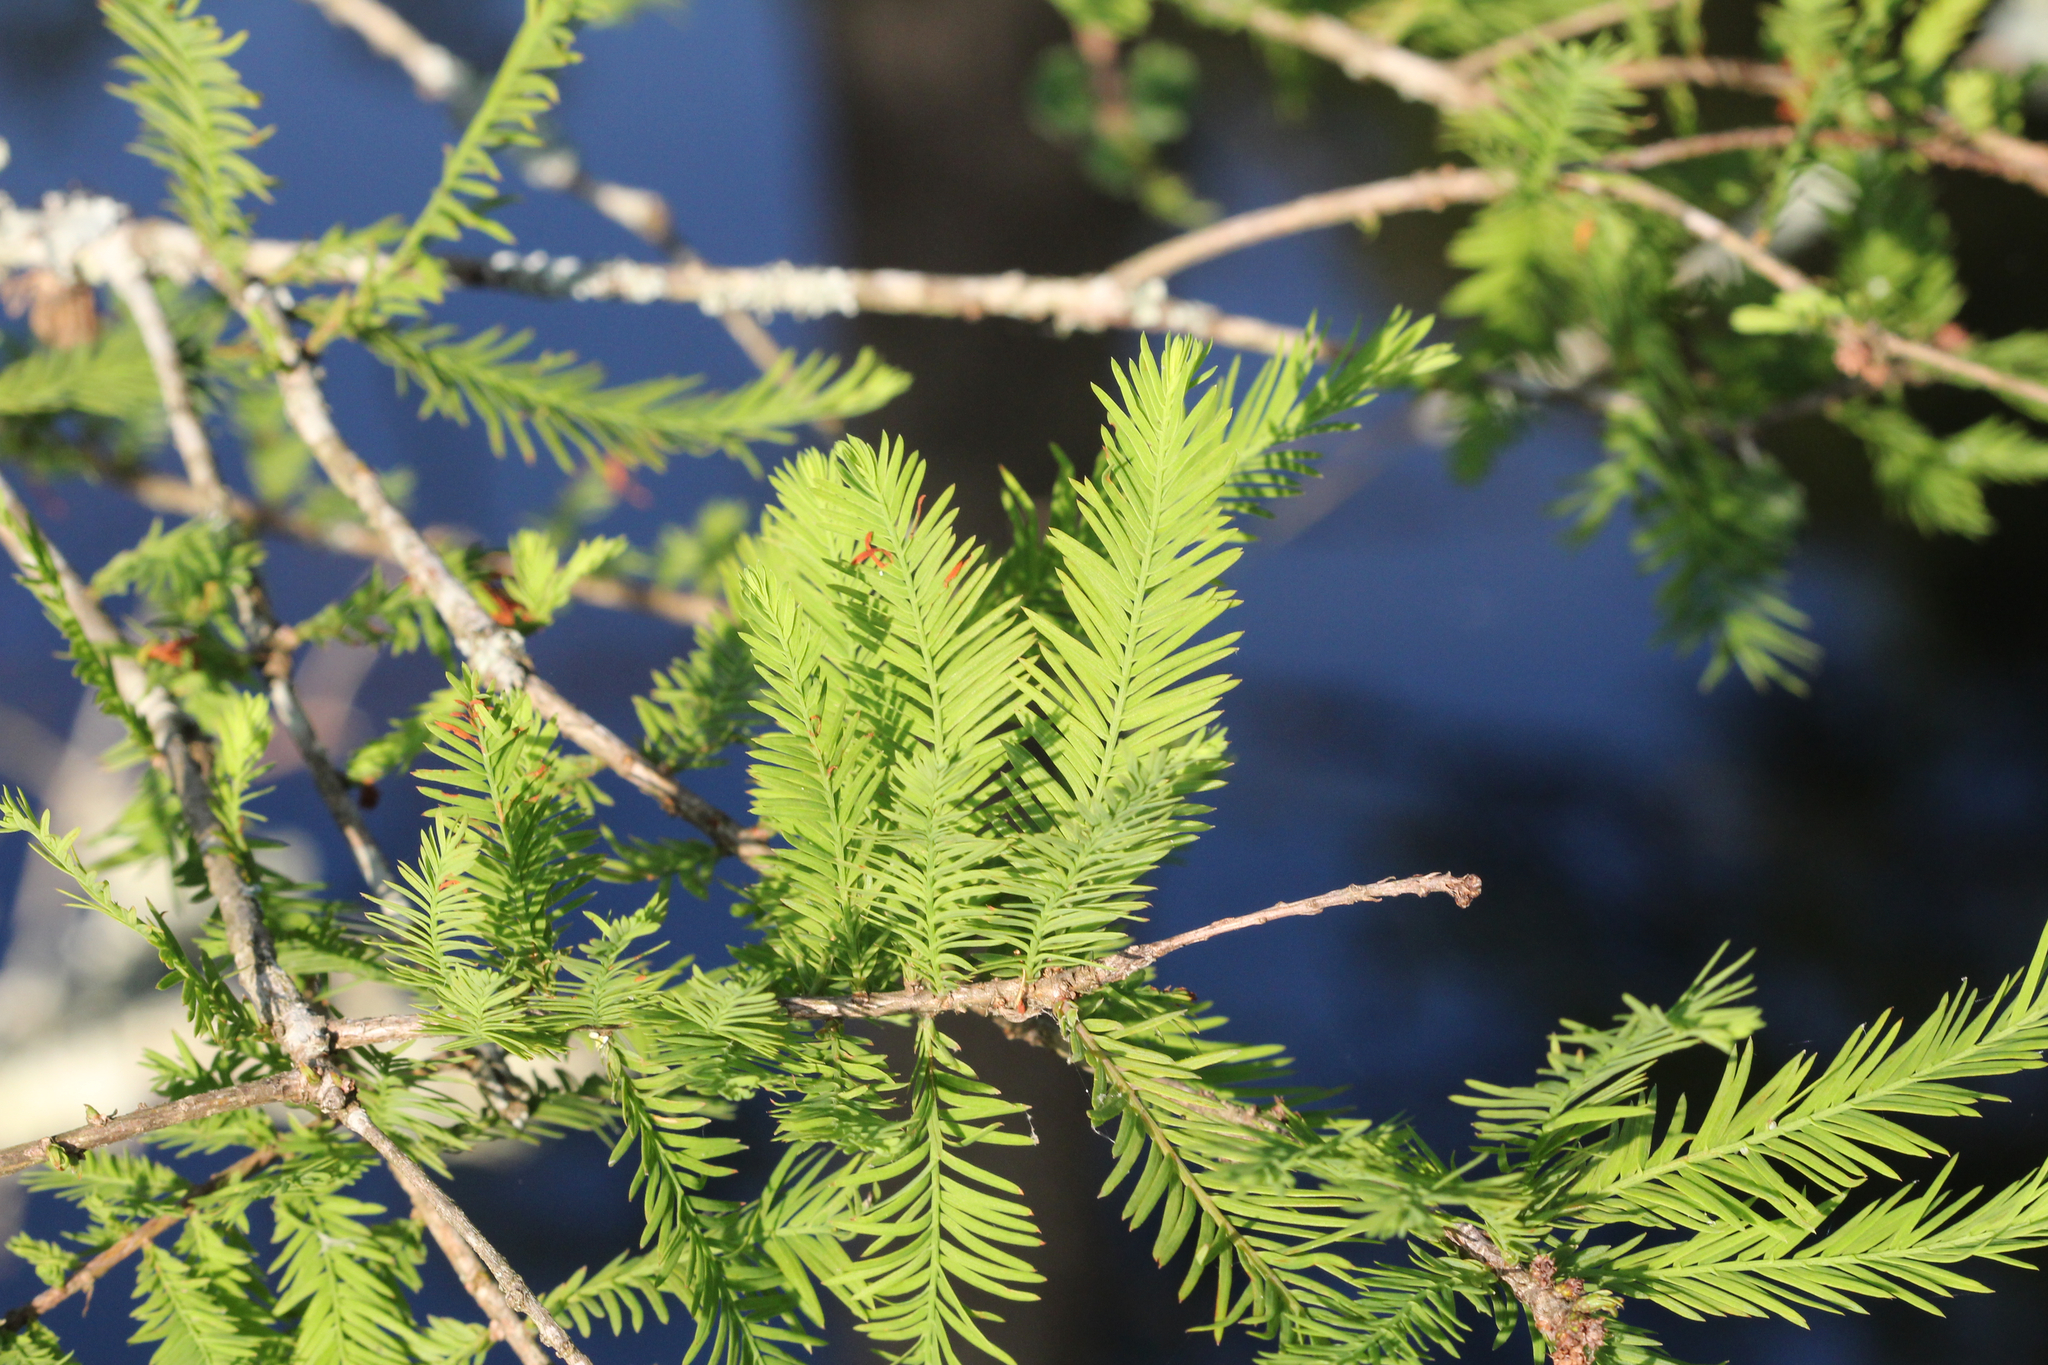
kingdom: Plantae
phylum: Tracheophyta
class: Pinopsida
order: Pinales
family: Cupressaceae
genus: Taxodium
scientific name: Taxodium distichum
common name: Bald cypress
